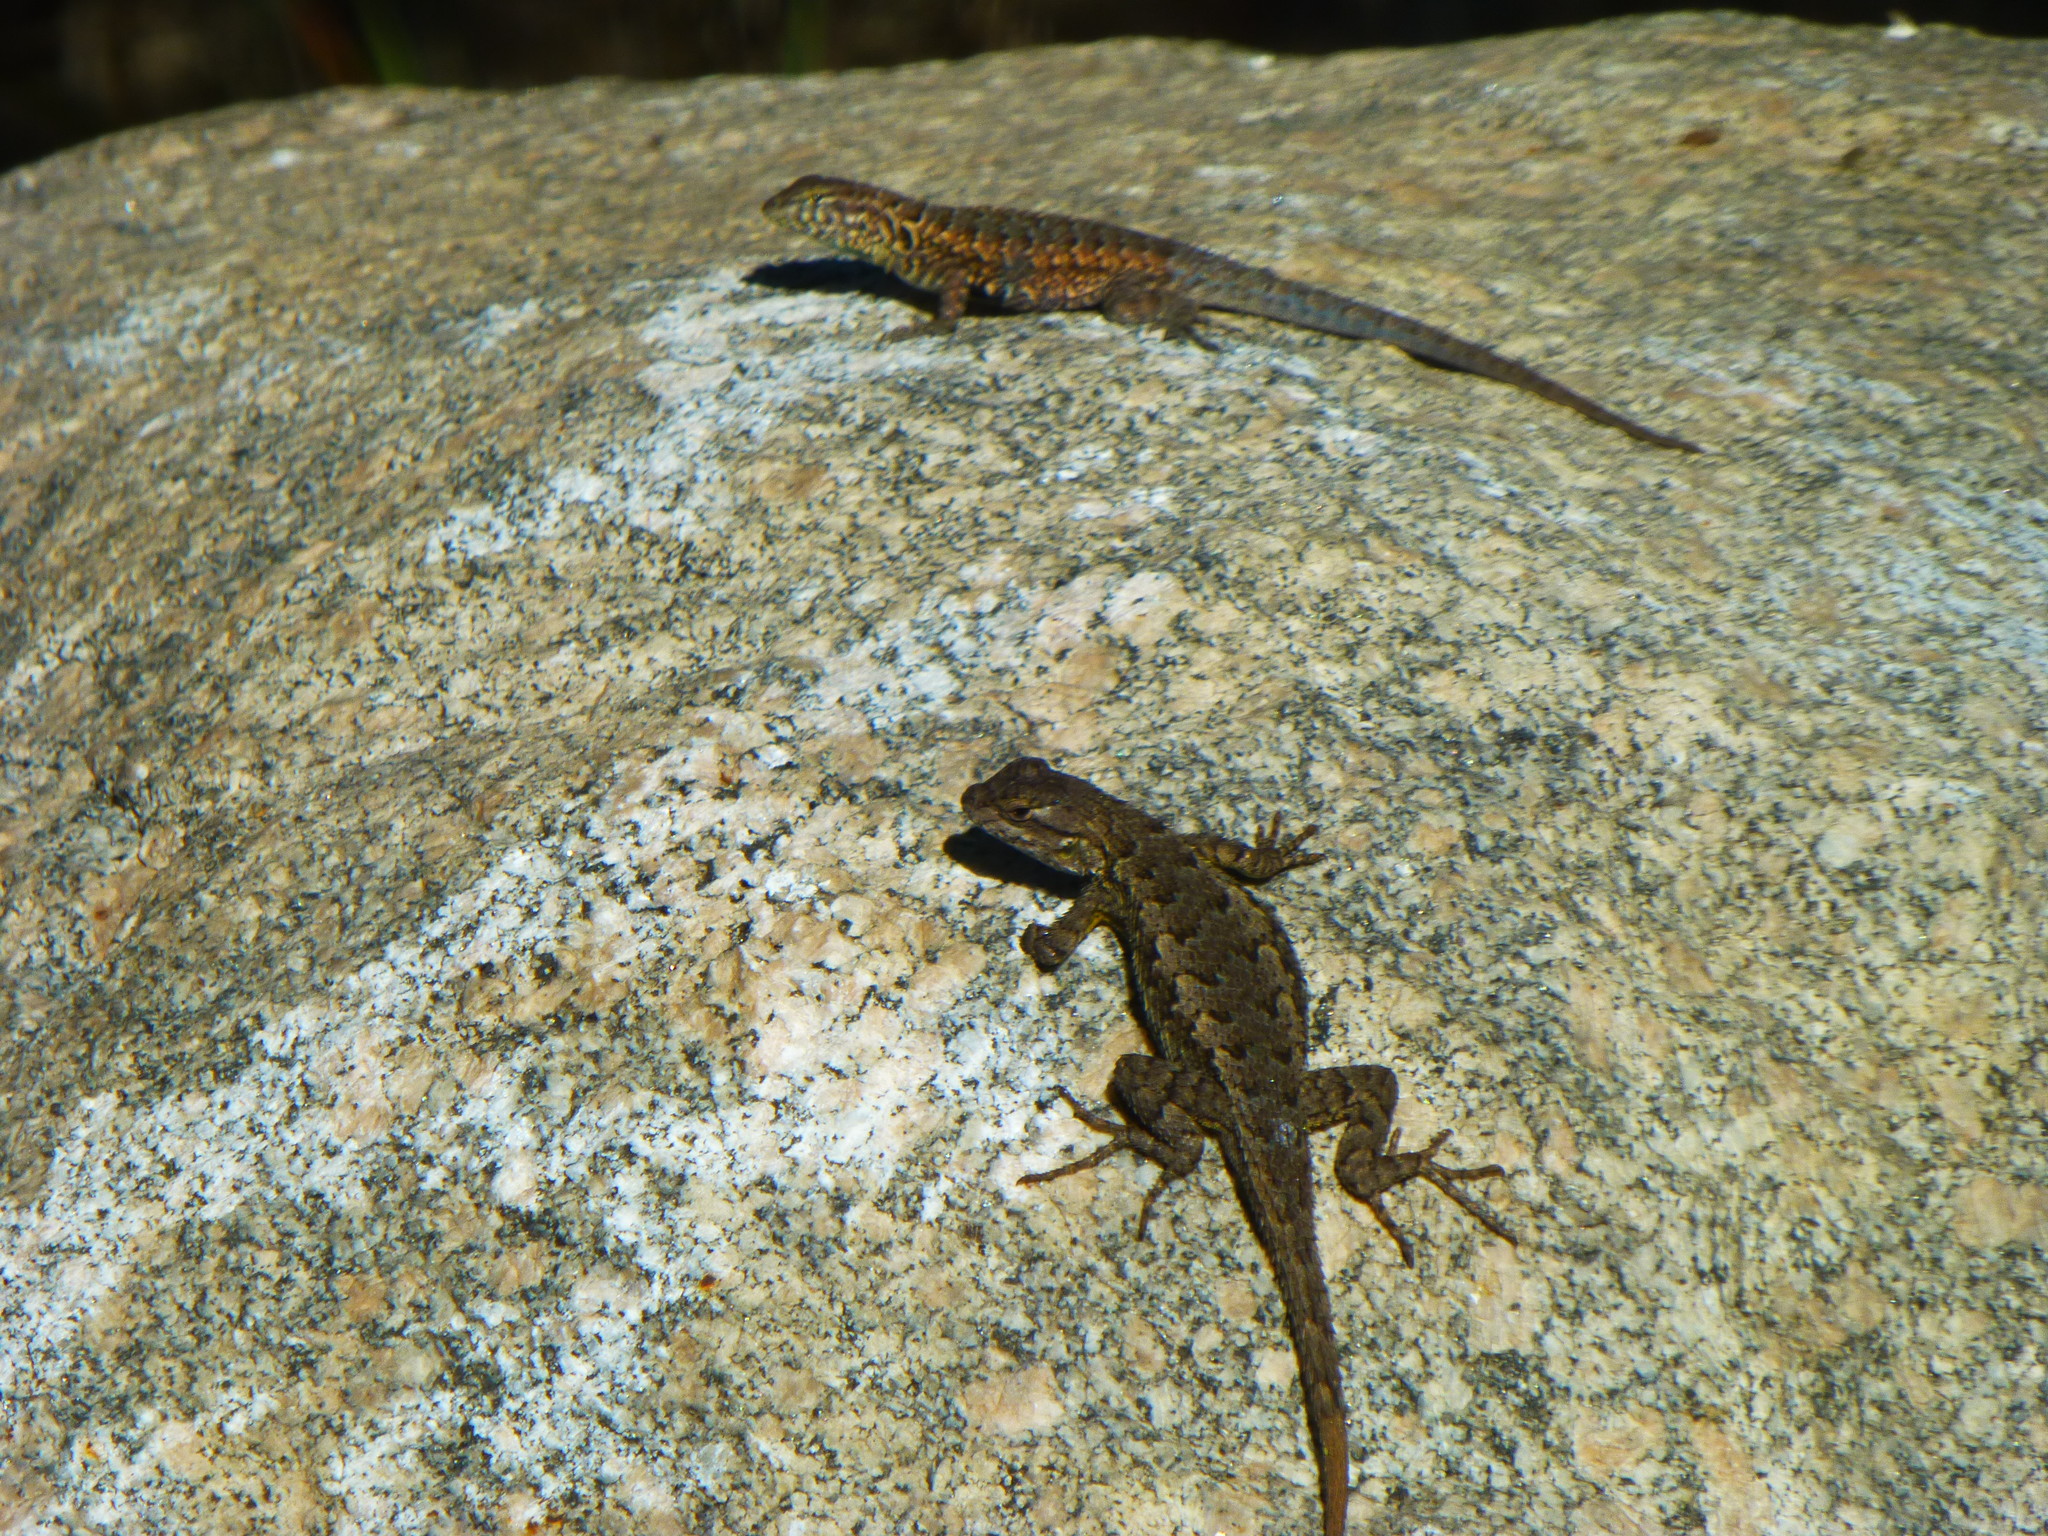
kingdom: Animalia
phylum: Chordata
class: Squamata
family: Phrynosomatidae
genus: Uta
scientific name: Uta stansburiana
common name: Side-blotched lizard
